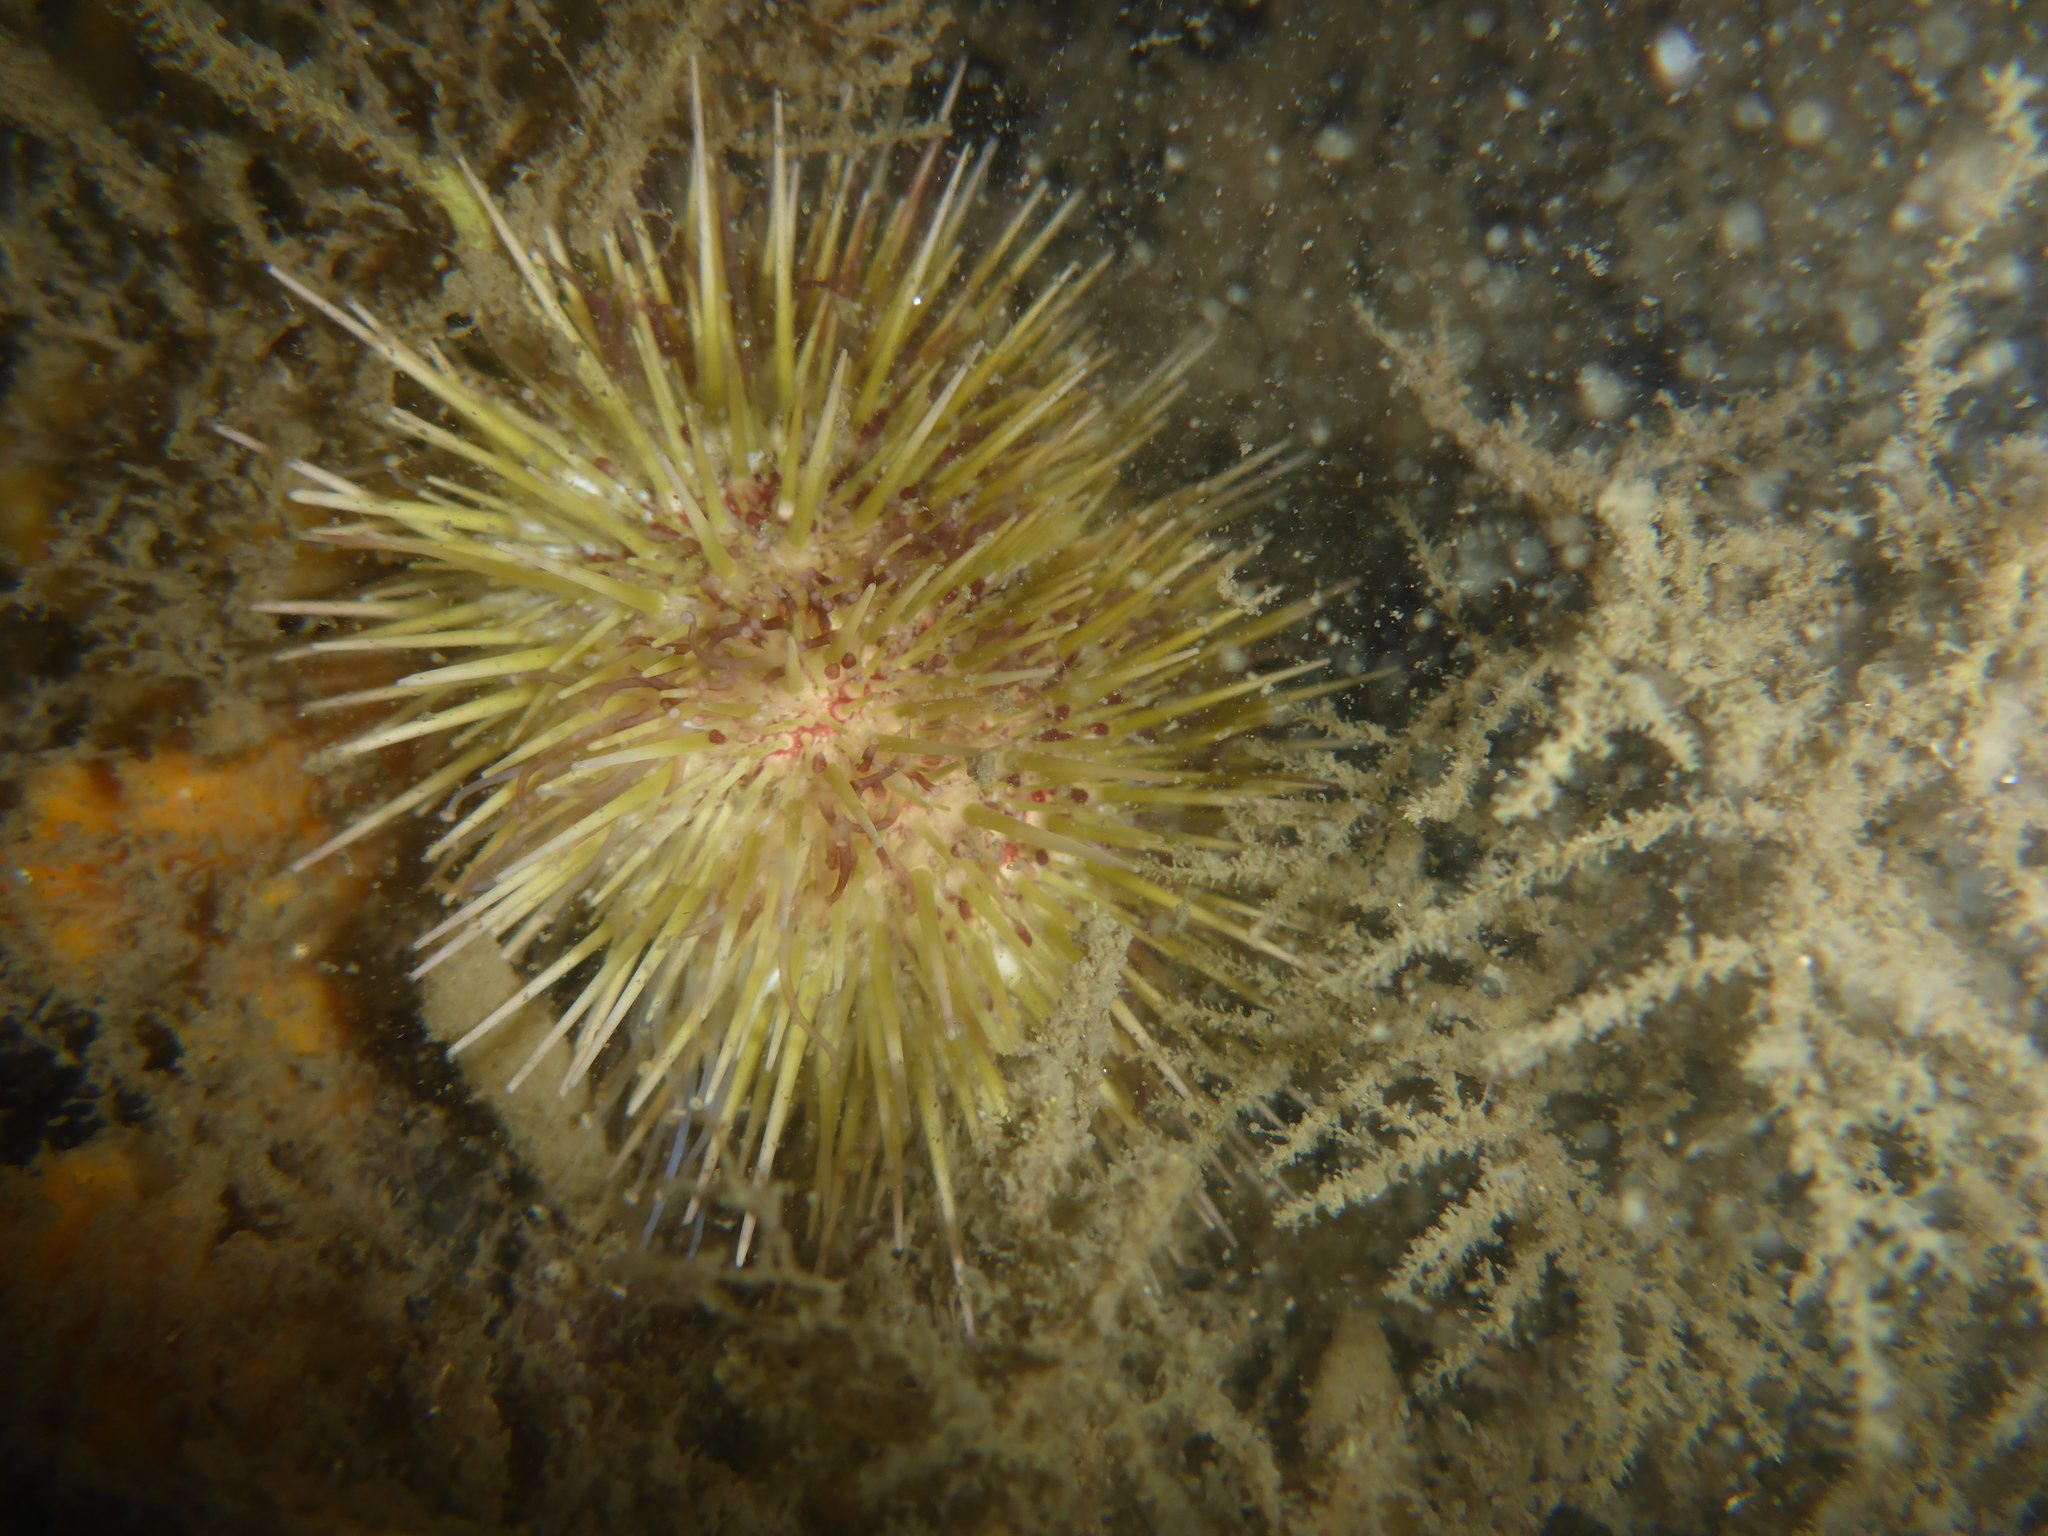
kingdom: Animalia
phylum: Echinodermata
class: Echinoidea
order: Camarodonta
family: Strongylocentrotidae
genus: Strongylocentrotus
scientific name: Strongylocentrotus droebachiensis
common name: Northern sea urchin
